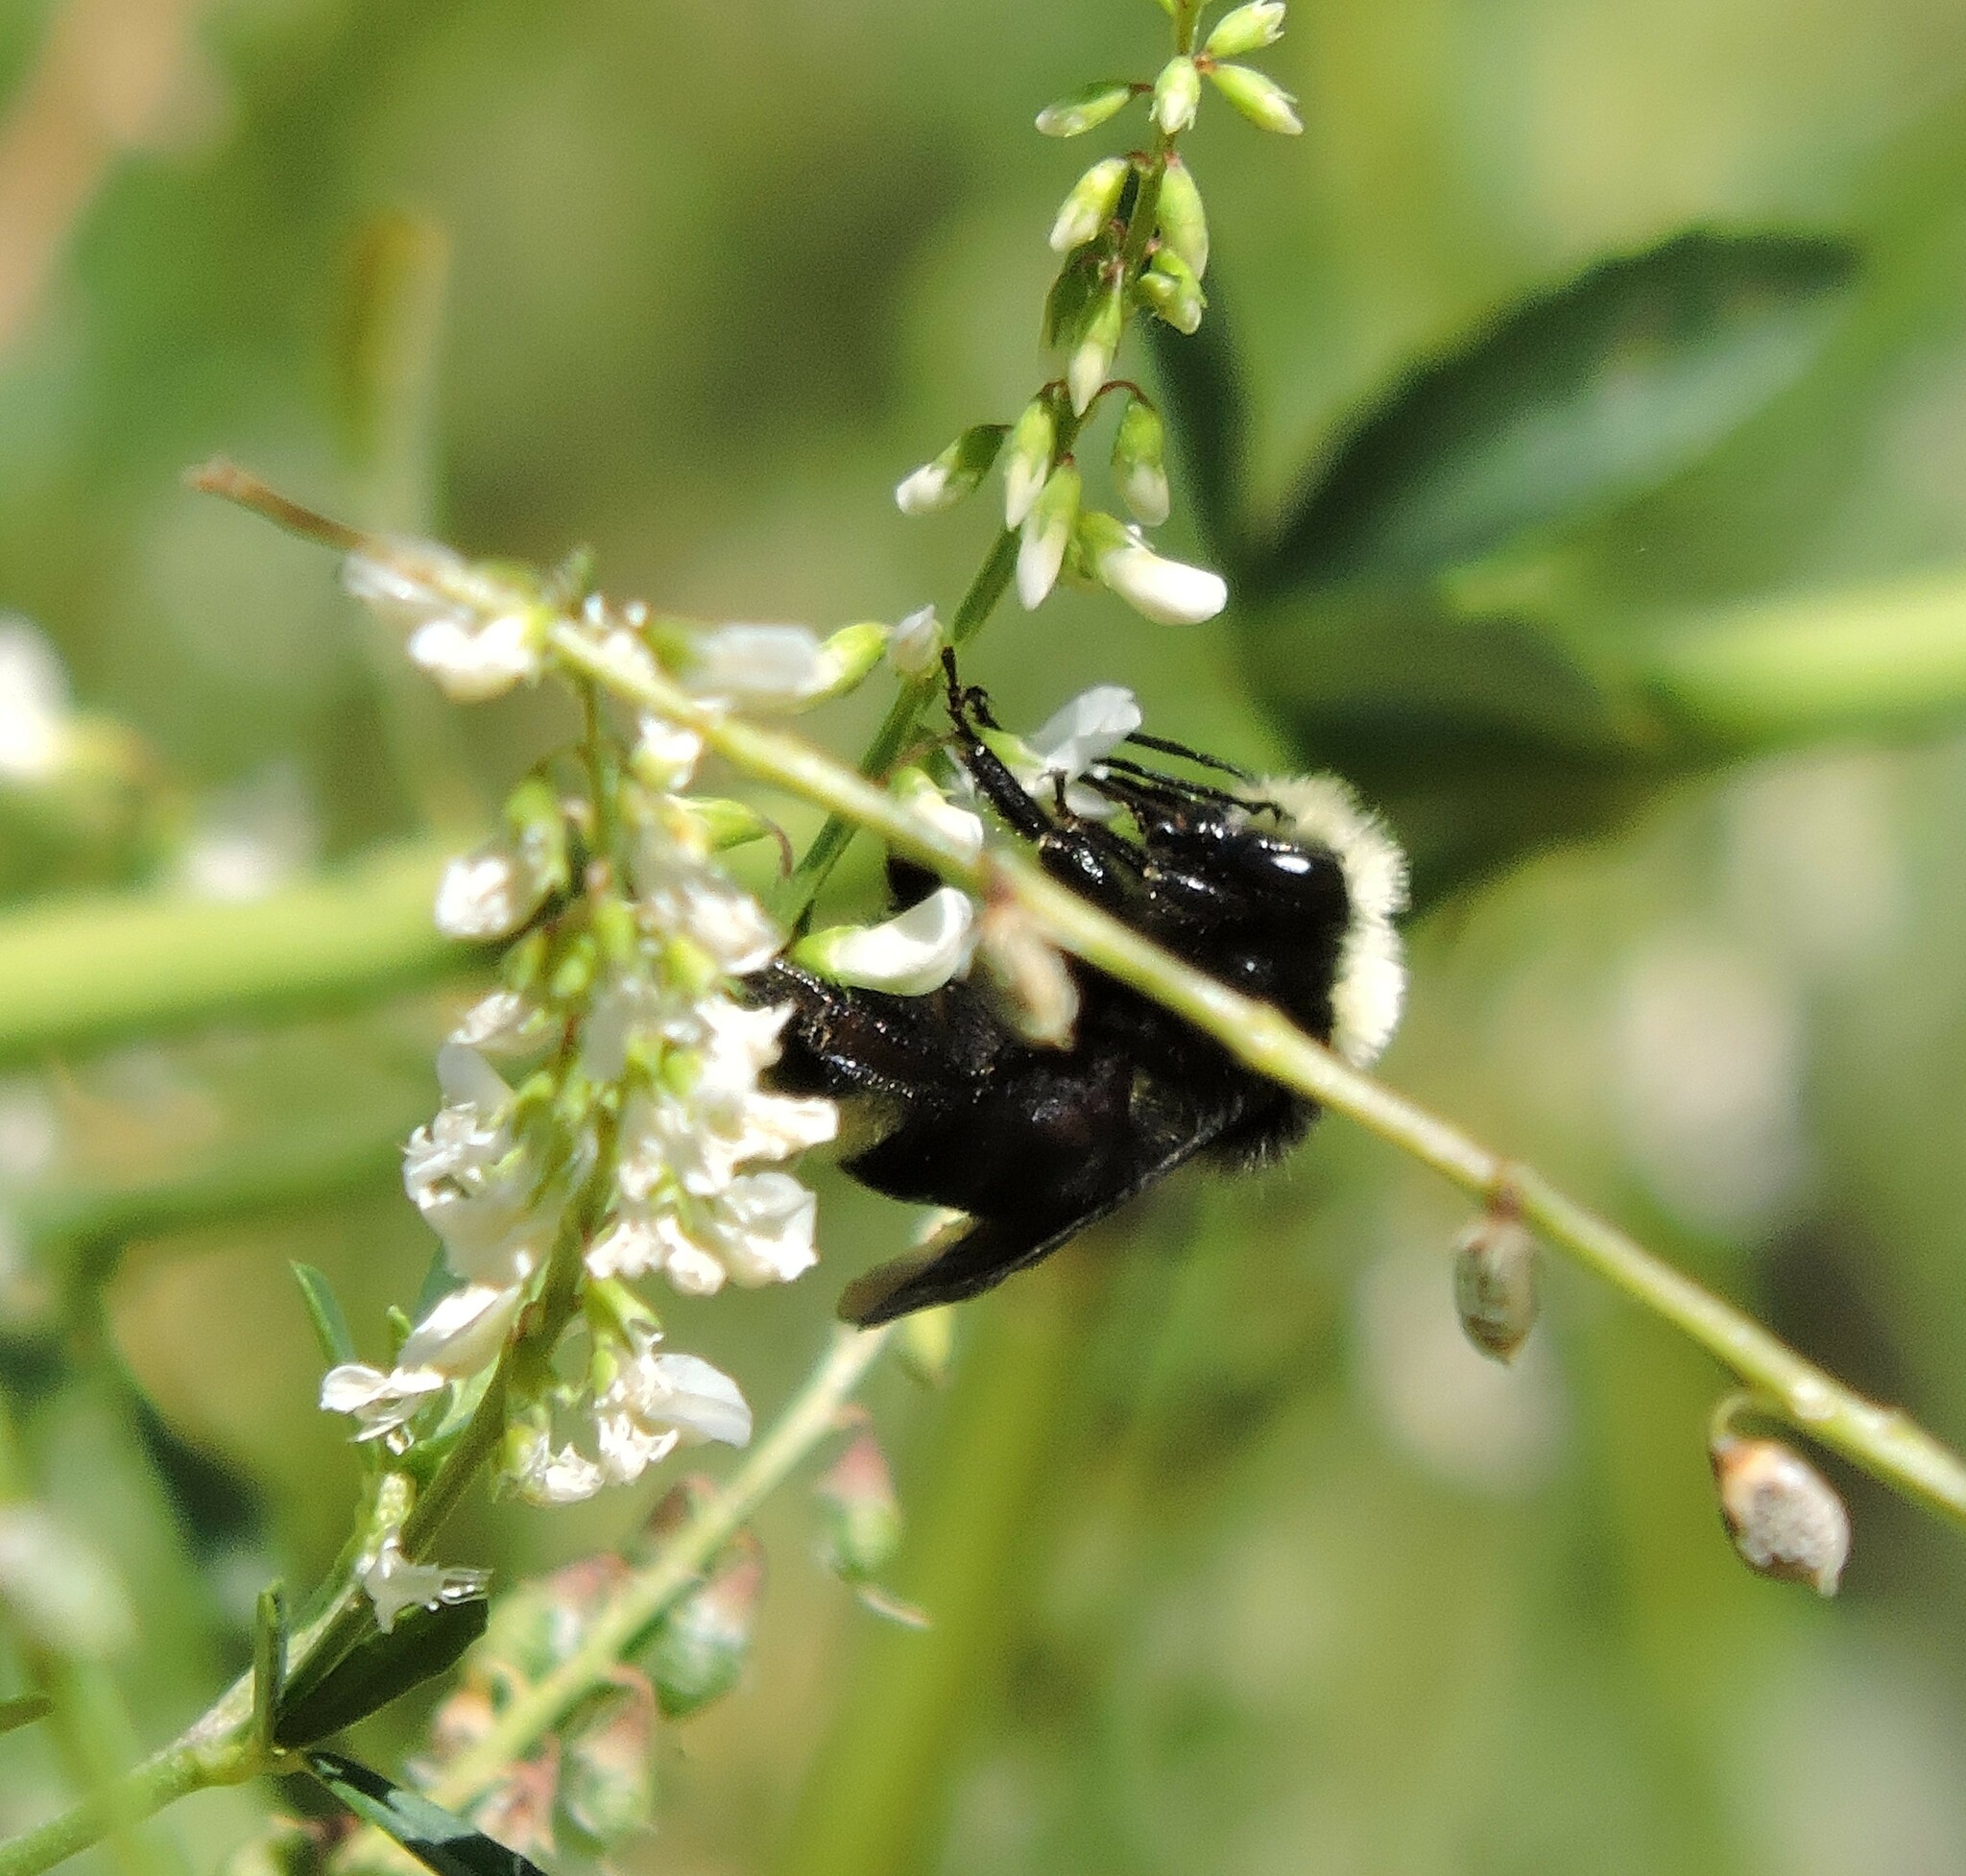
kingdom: Plantae
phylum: Tracheophyta
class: Magnoliopsida
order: Fabales
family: Fabaceae
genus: Melilotus
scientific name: Melilotus albus
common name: White melilot
